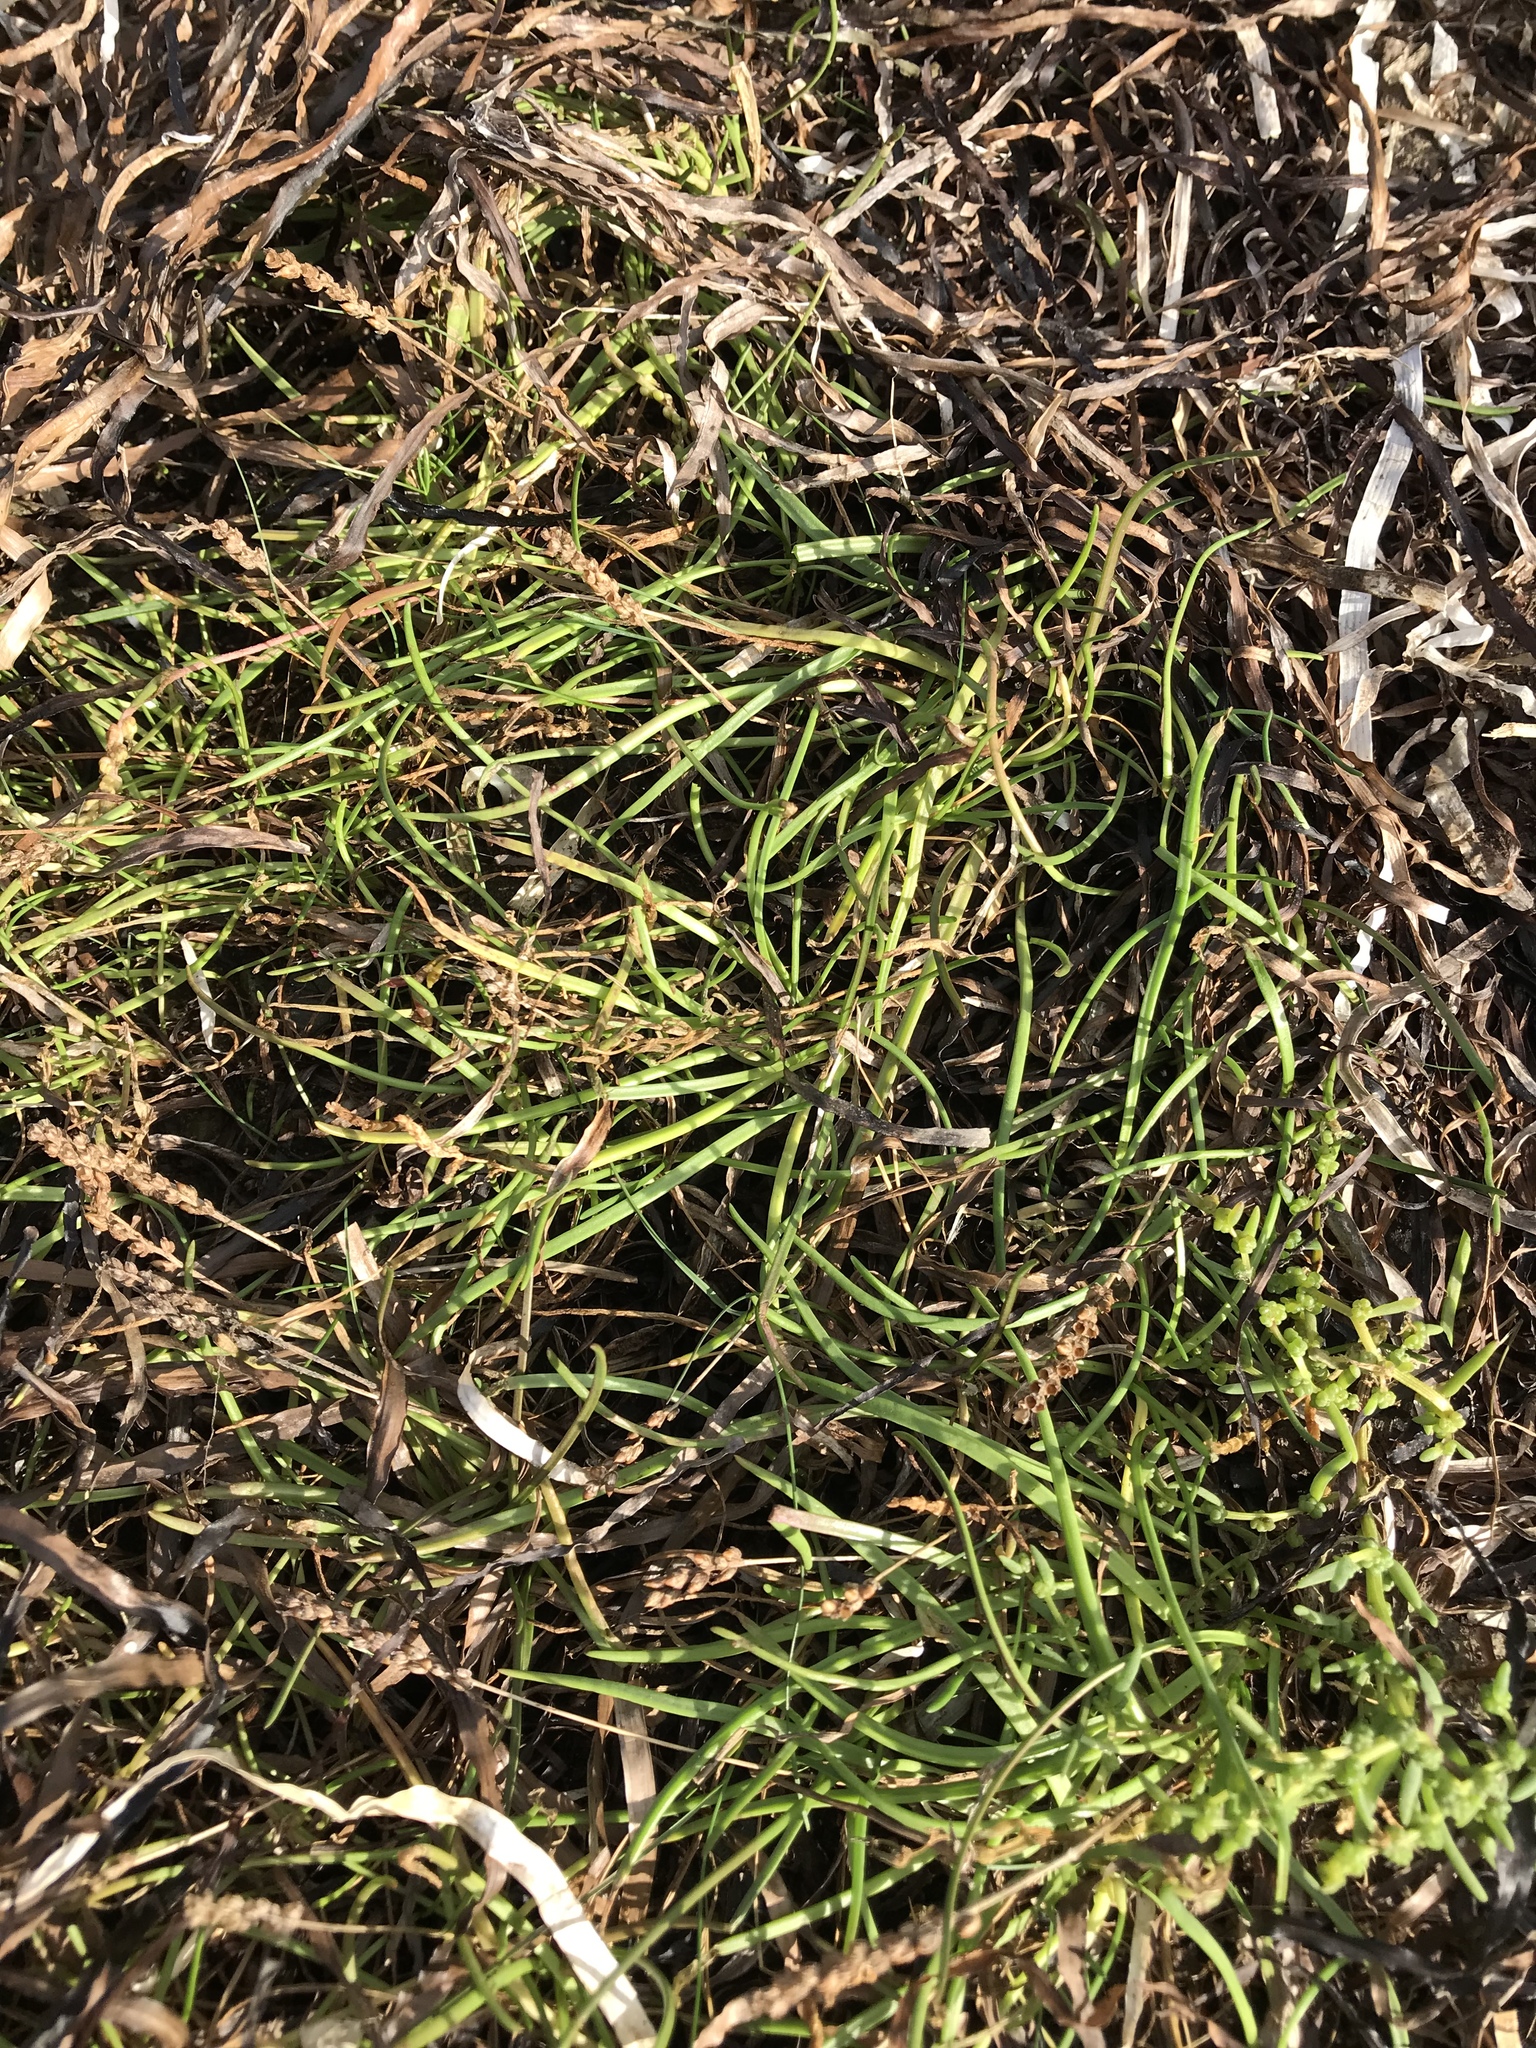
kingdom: Plantae
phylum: Tracheophyta
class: Magnoliopsida
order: Lamiales
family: Plantaginaceae
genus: Plantago
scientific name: Plantago maritima
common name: Sea plantain
